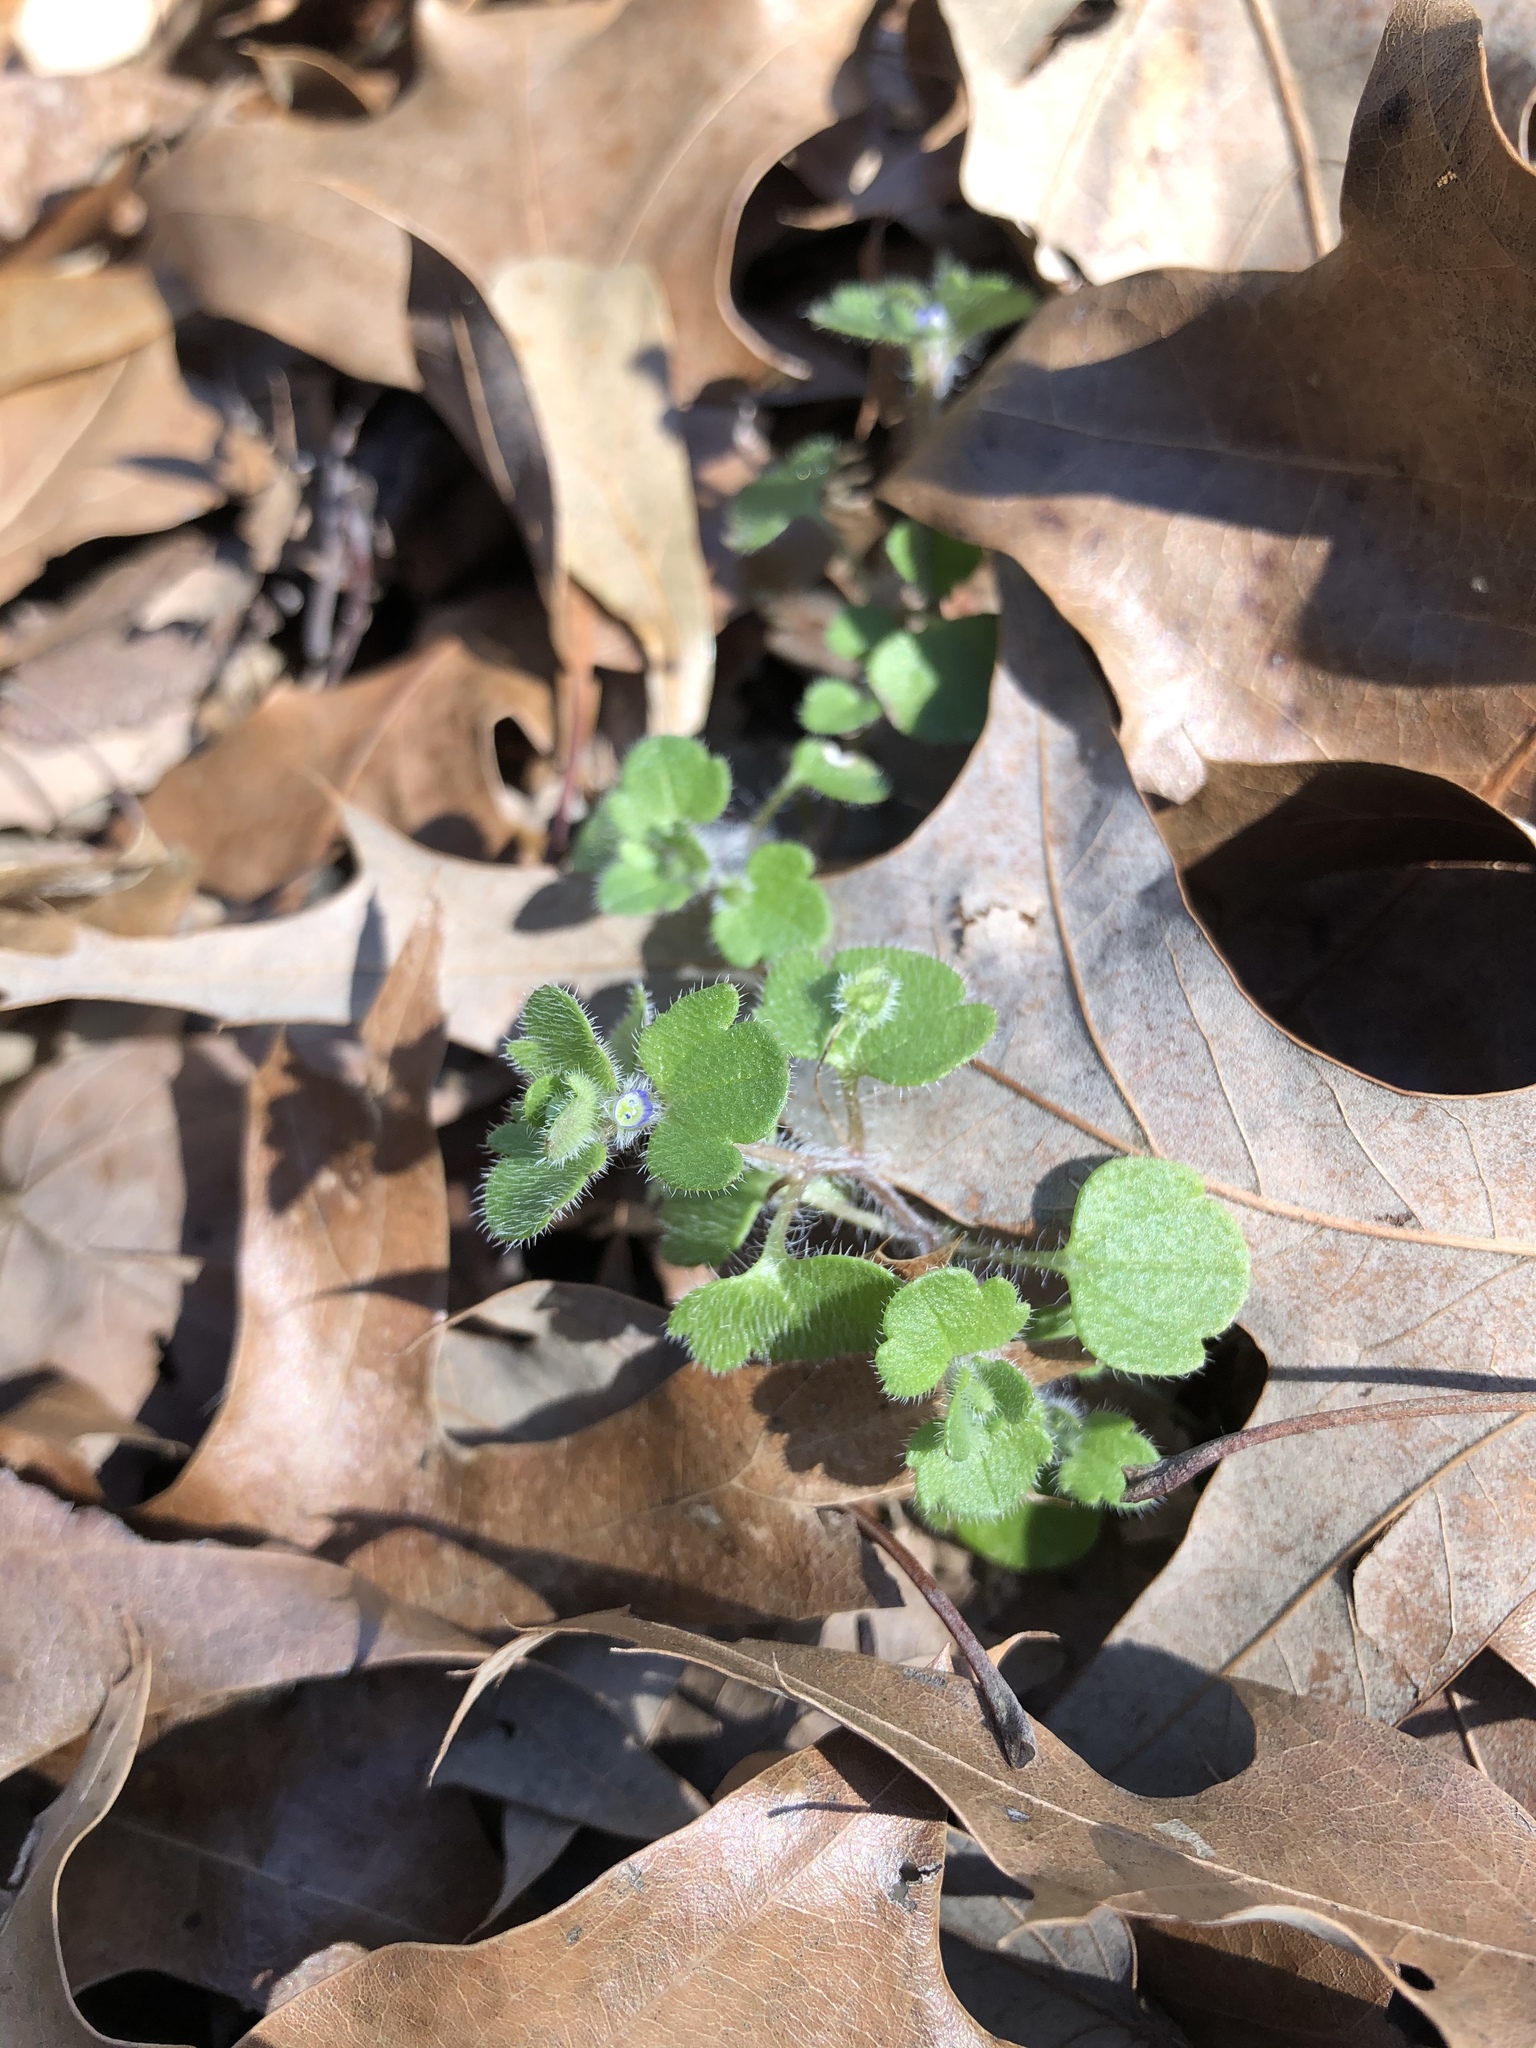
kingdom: Plantae
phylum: Tracheophyta
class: Magnoliopsida
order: Lamiales
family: Plantaginaceae
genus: Veronica
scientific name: Veronica hederifolia
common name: Ivy-leaved speedwell
